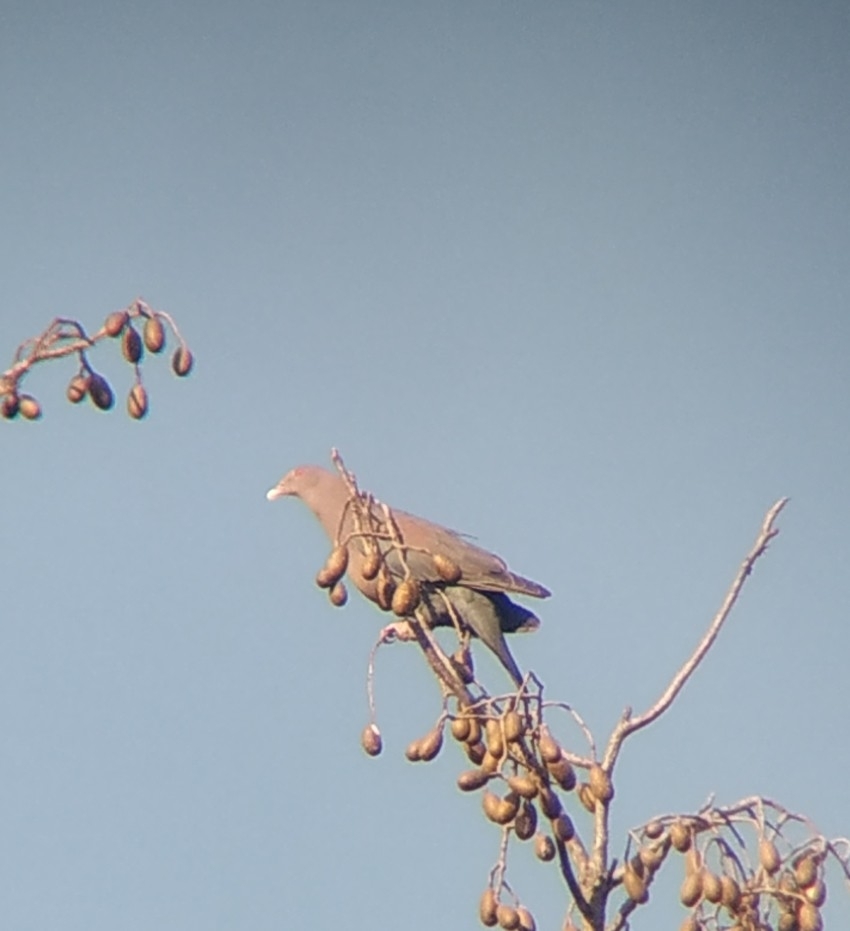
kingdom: Animalia
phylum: Chordata
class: Aves
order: Columbiformes
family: Columbidae
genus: Patagioenas
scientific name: Patagioenas flavirostris
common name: Red-billed pigeon
